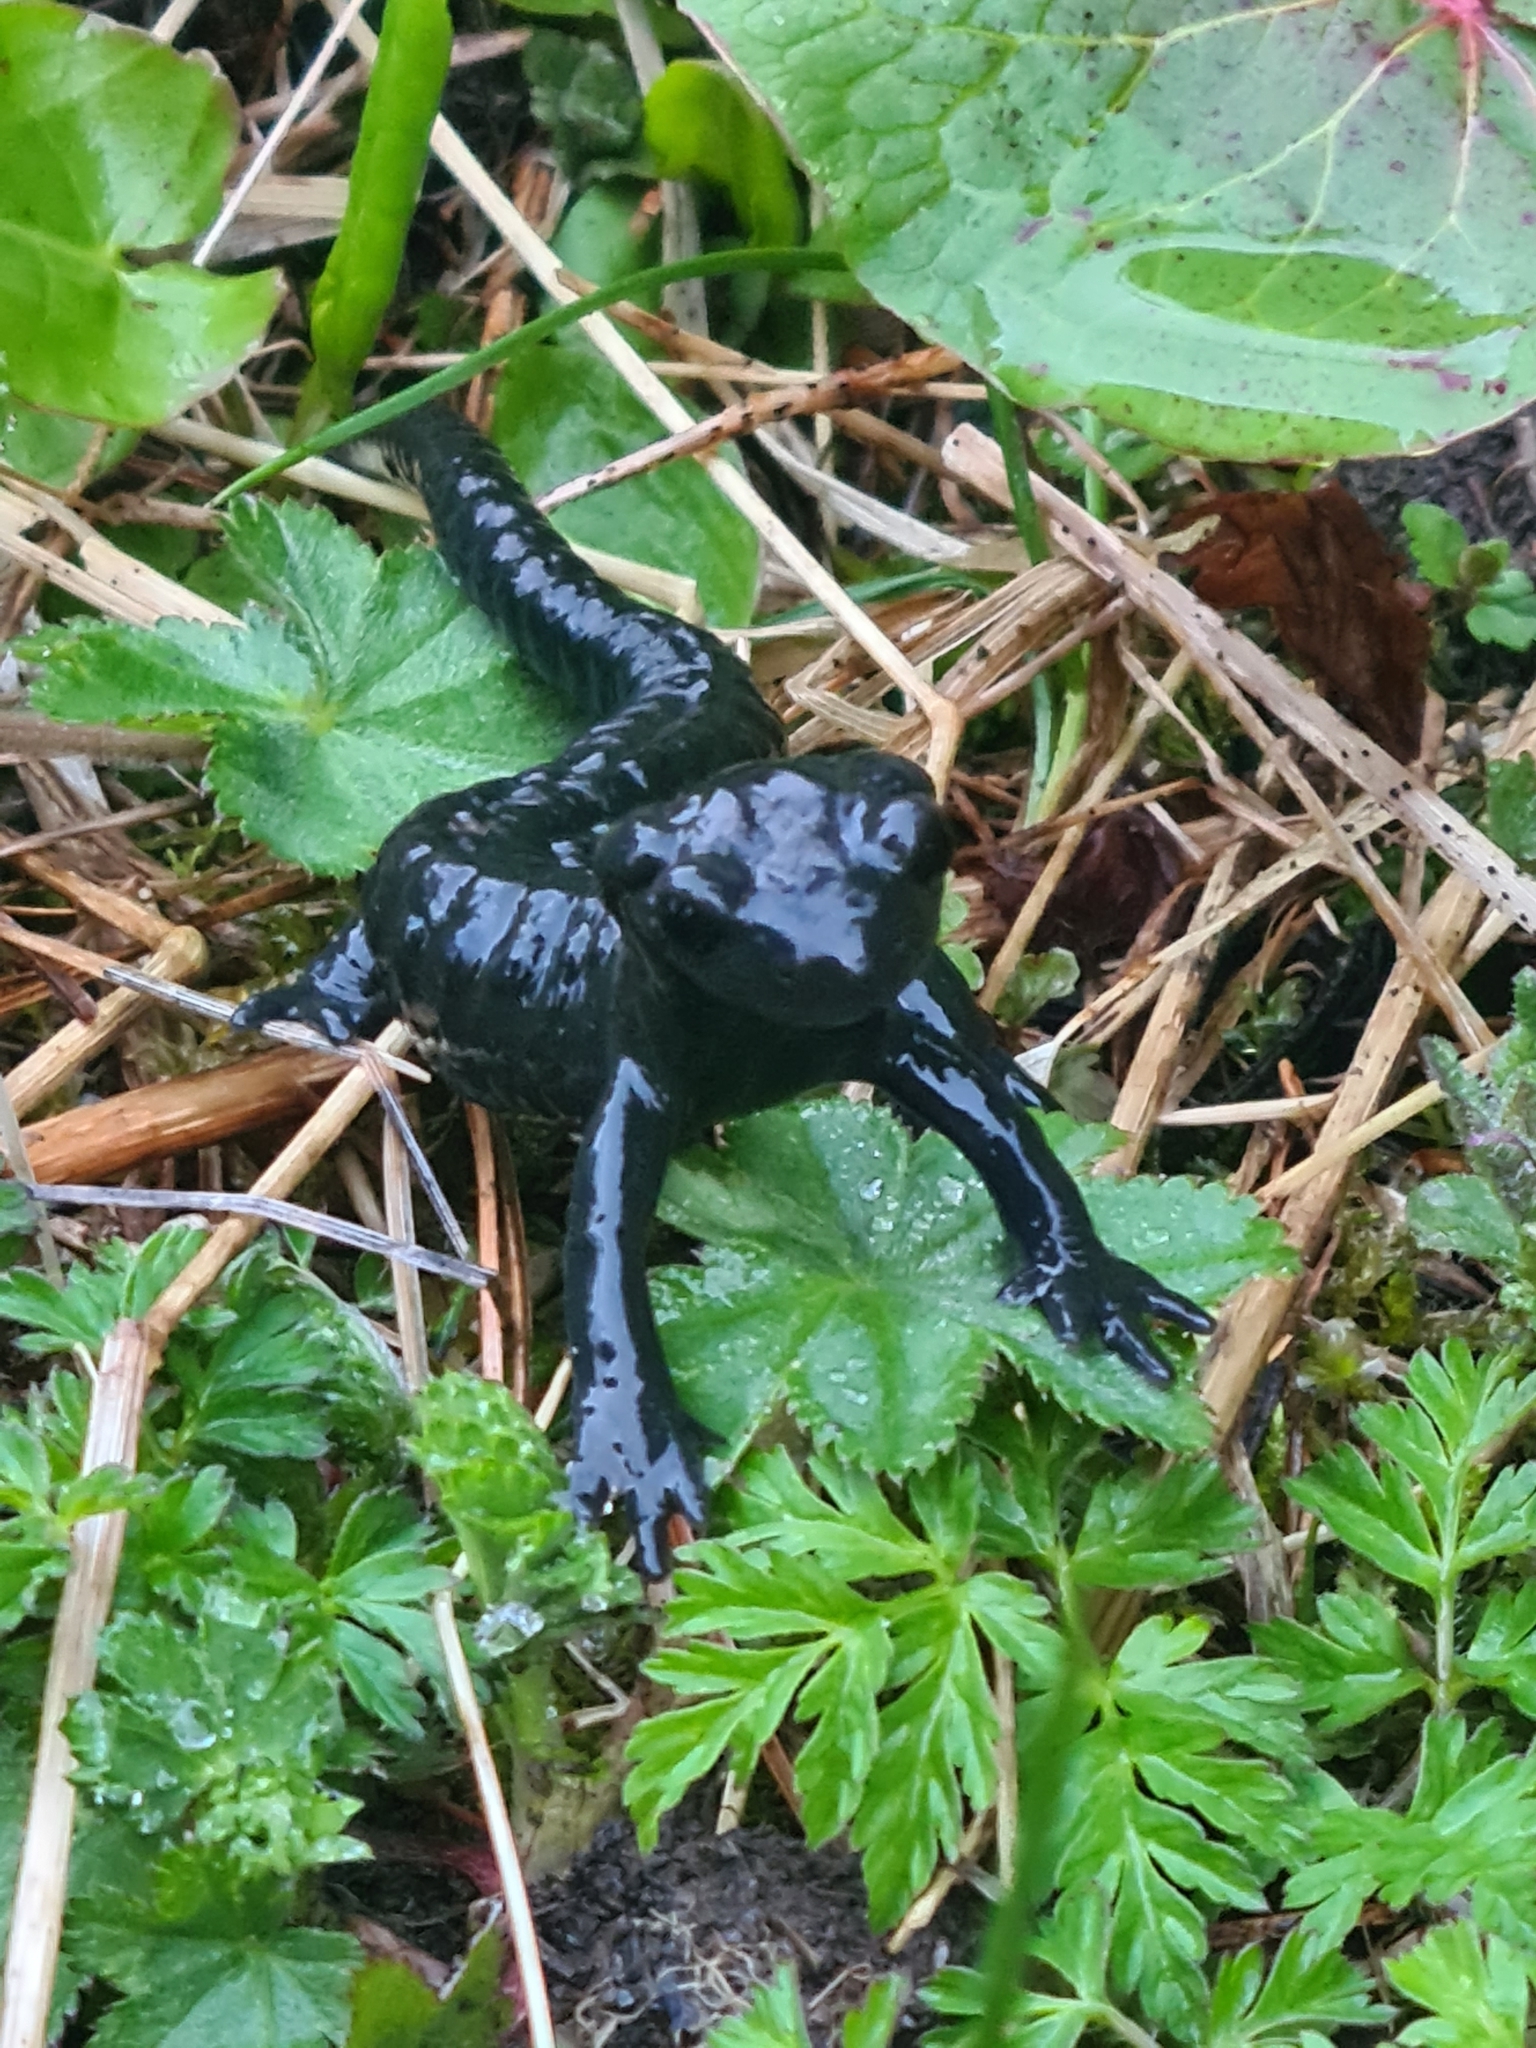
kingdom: Animalia
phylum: Chordata
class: Amphibia
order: Caudata
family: Salamandridae
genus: Salamandra
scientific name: Salamandra atra
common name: Alpine salamander
